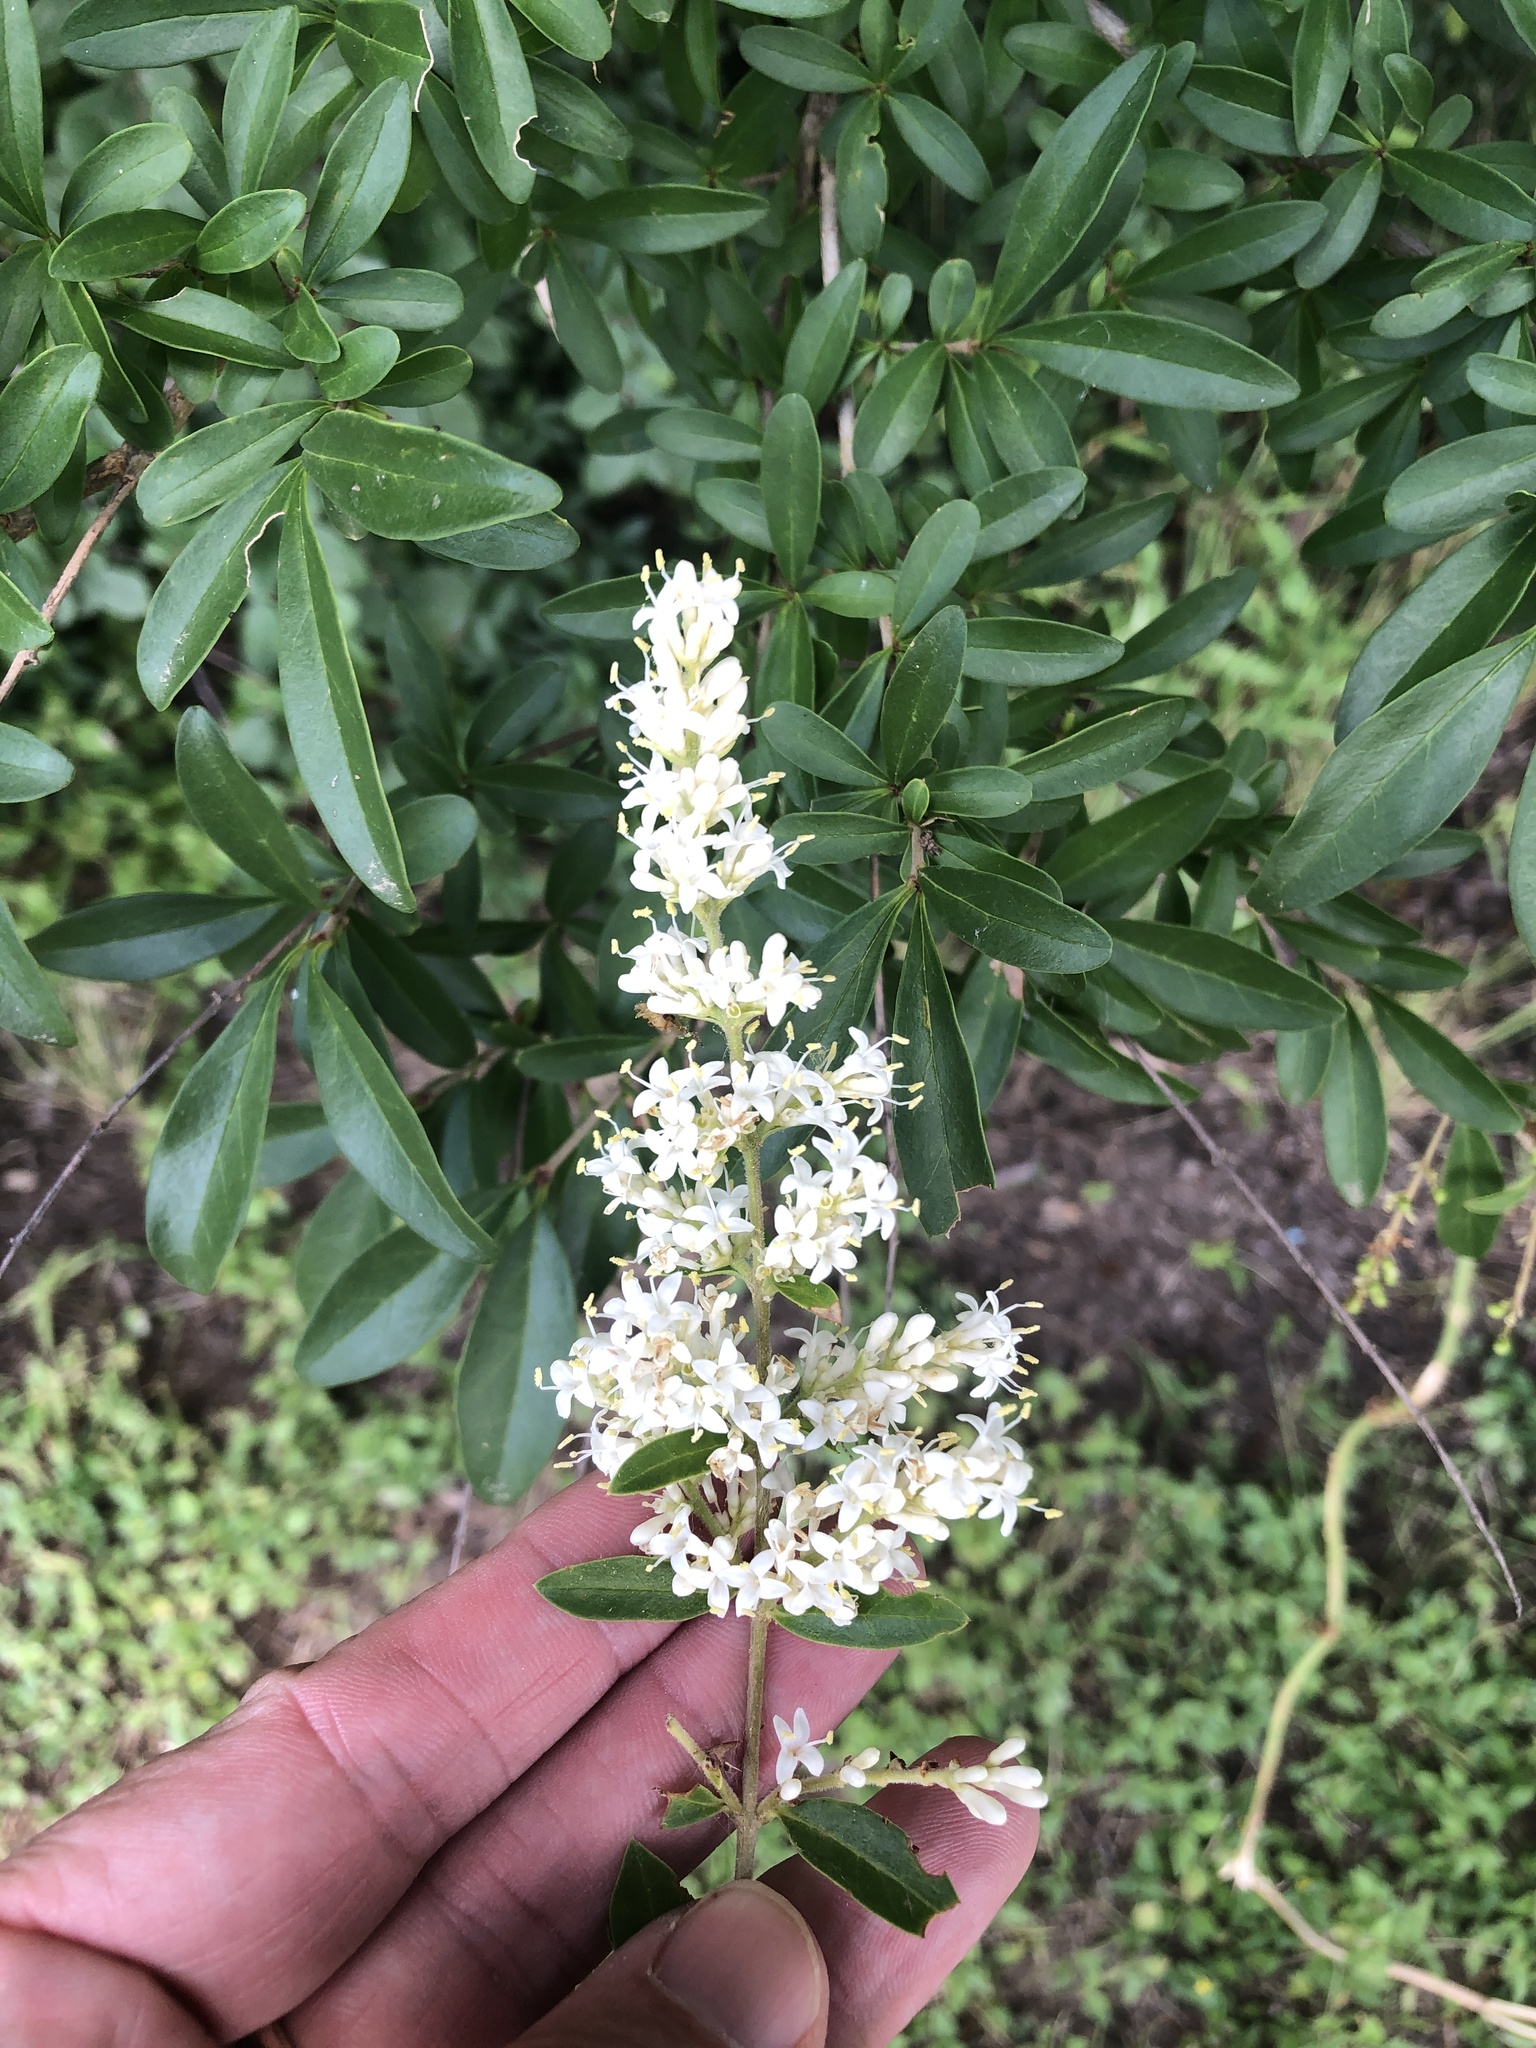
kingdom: Plantae
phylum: Tracheophyta
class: Magnoliopsida
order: Lamiales
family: Oleaceae
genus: Ligustrum
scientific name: Ligustrum quihoui
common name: Waxyleaf privet
